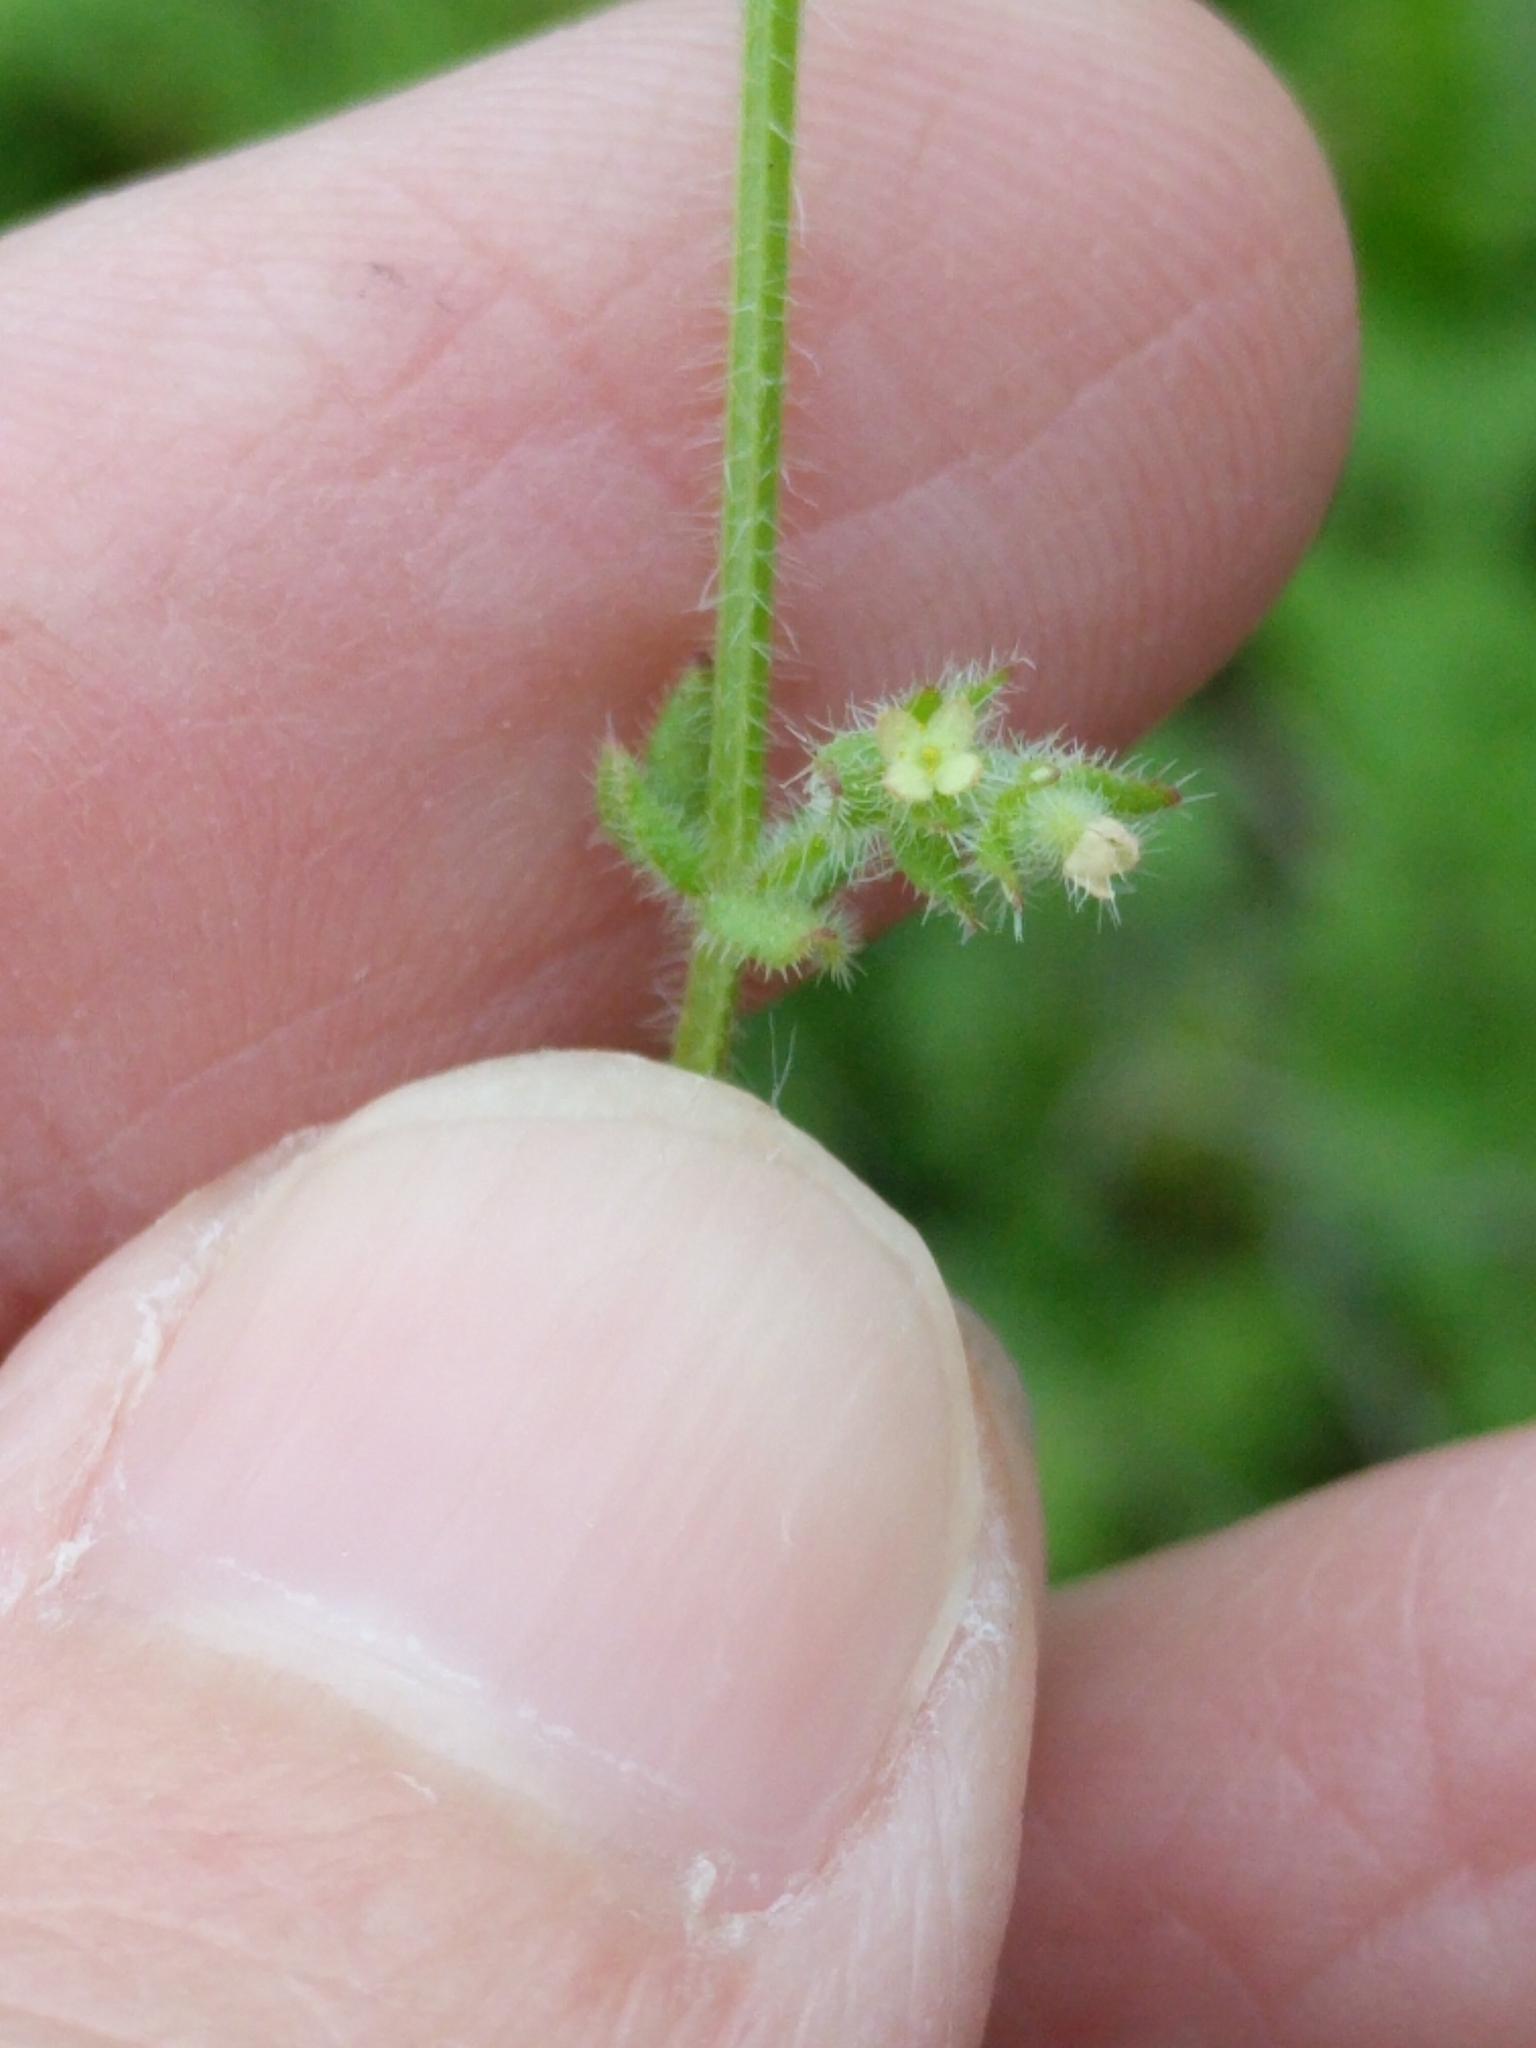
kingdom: Plantae
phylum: Tracheophyta
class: Magnoliopsida
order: Gentianales
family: Rubiaceae
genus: Galium
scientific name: Galium texense
